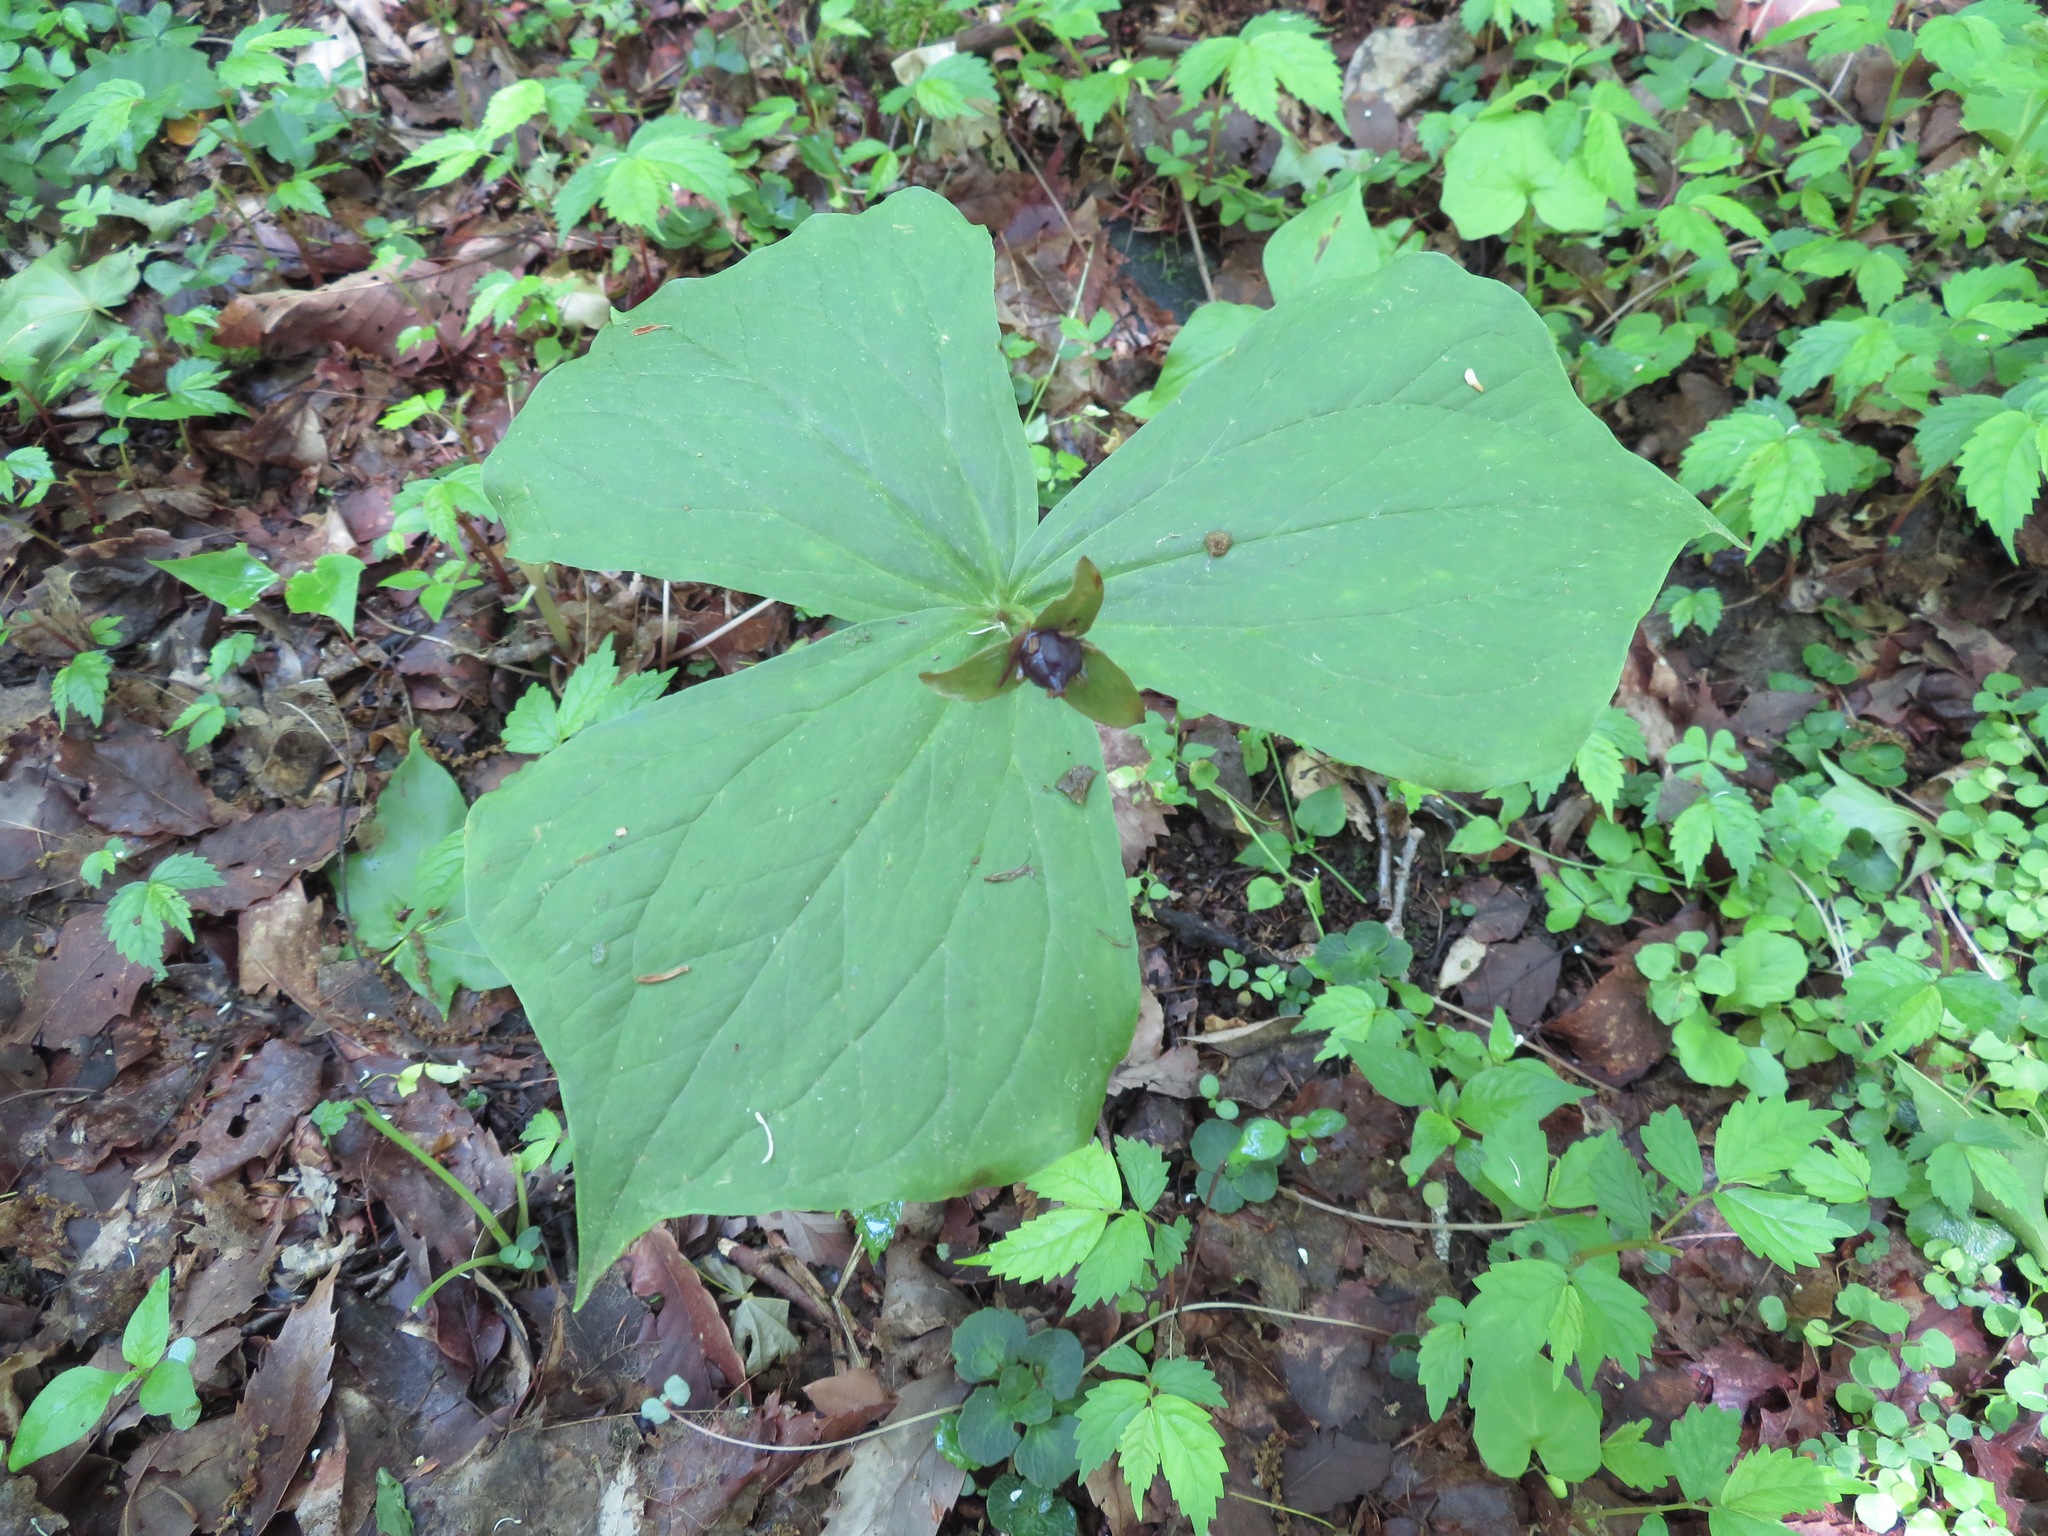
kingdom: Plantae
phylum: Tracheophyta
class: Liliopsida
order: Liliales
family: Melanthiaceae
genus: Trillium
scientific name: Trillium apetalon
